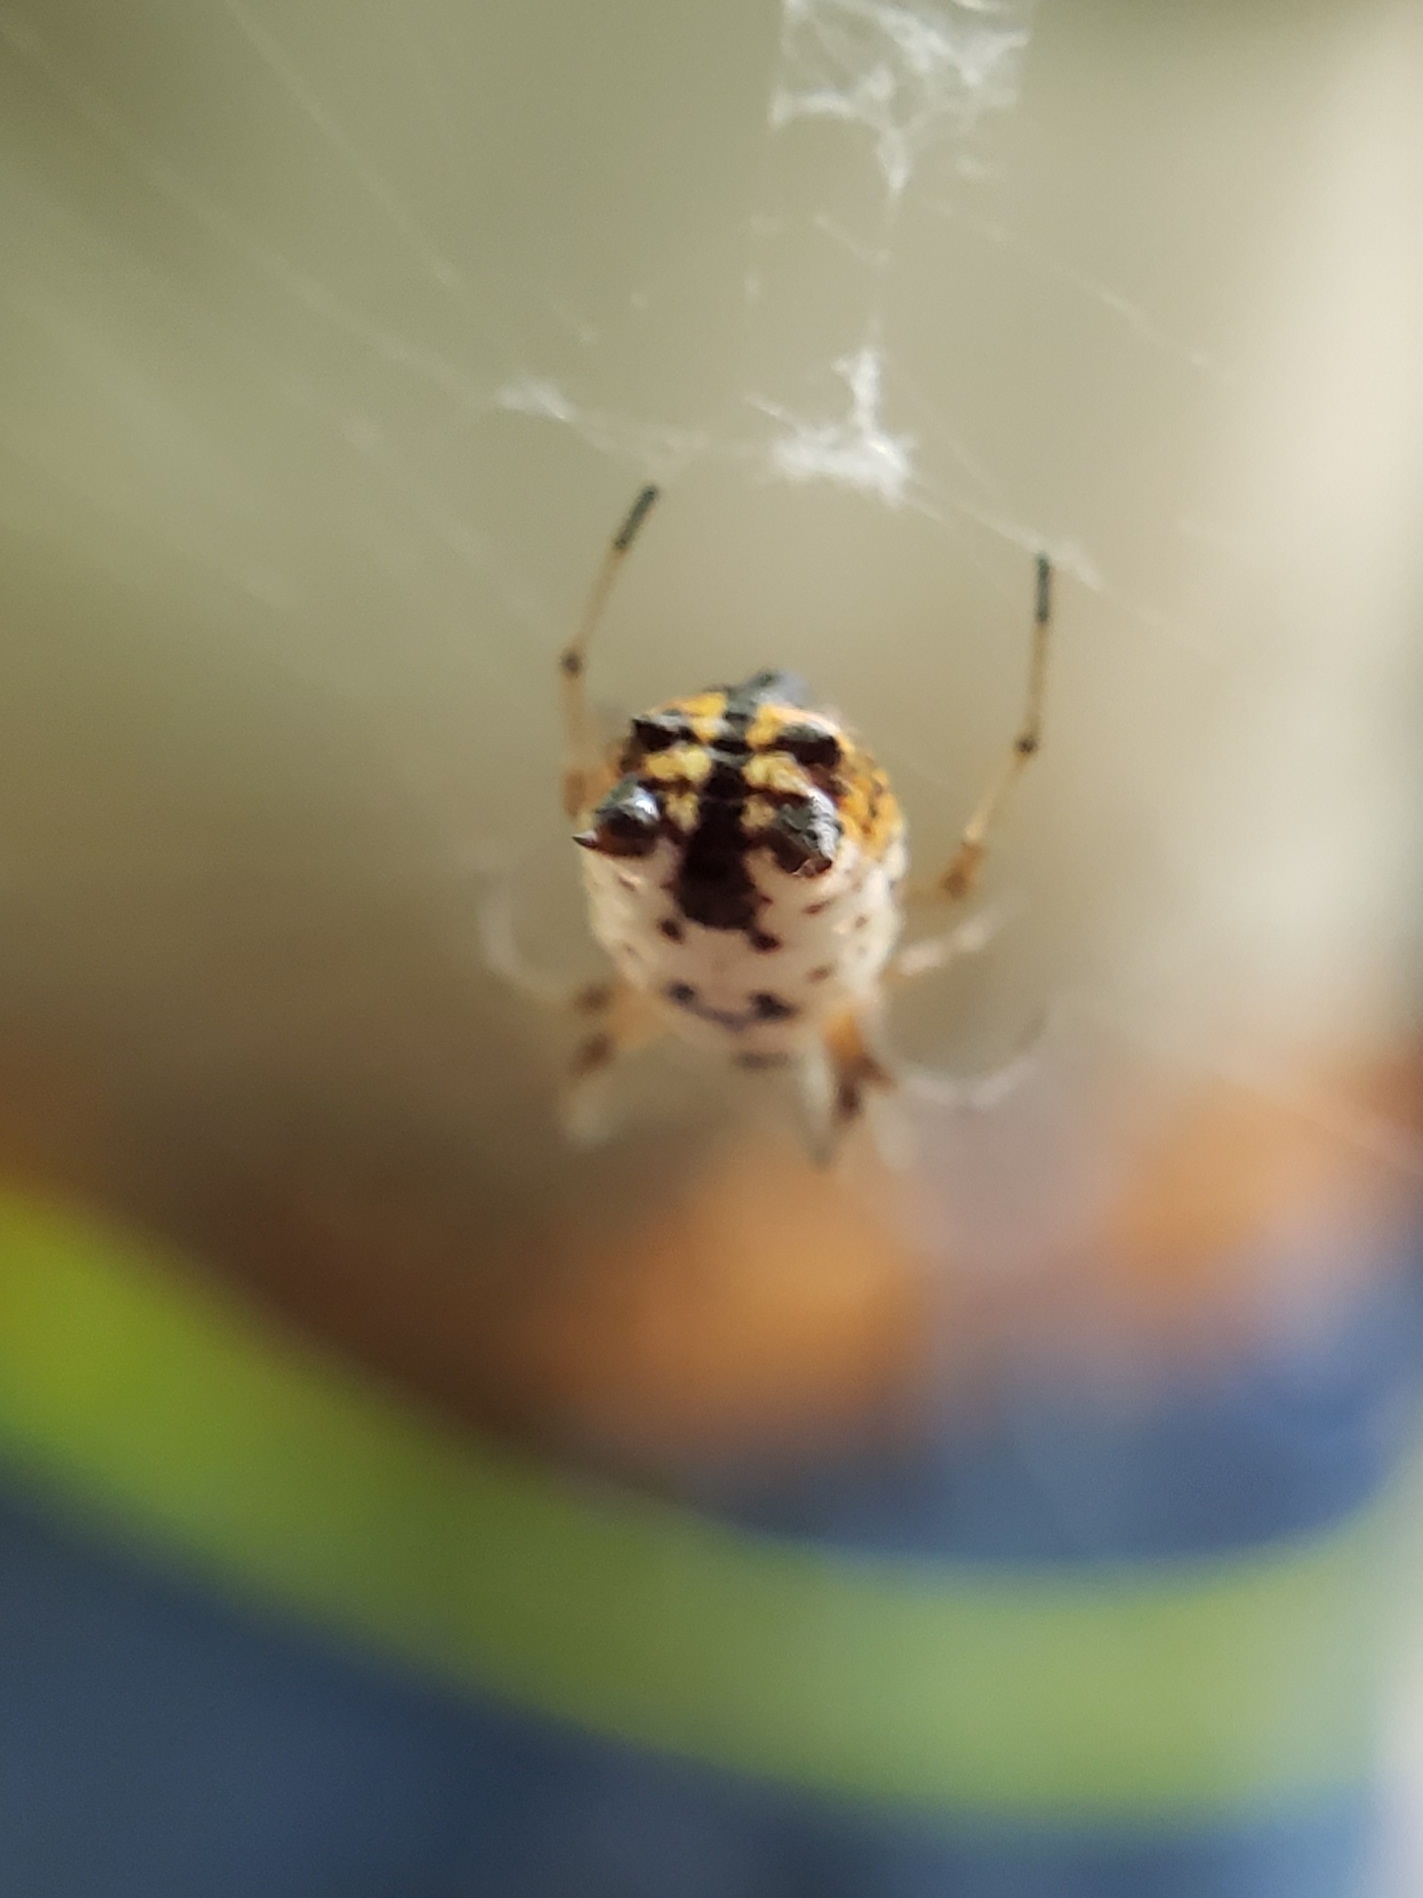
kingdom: Animalia
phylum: Arthropoda
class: Arachnida
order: Araneae
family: Araneidae
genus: Micrathena
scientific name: Micrathena mitrata
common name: Orb weavers
